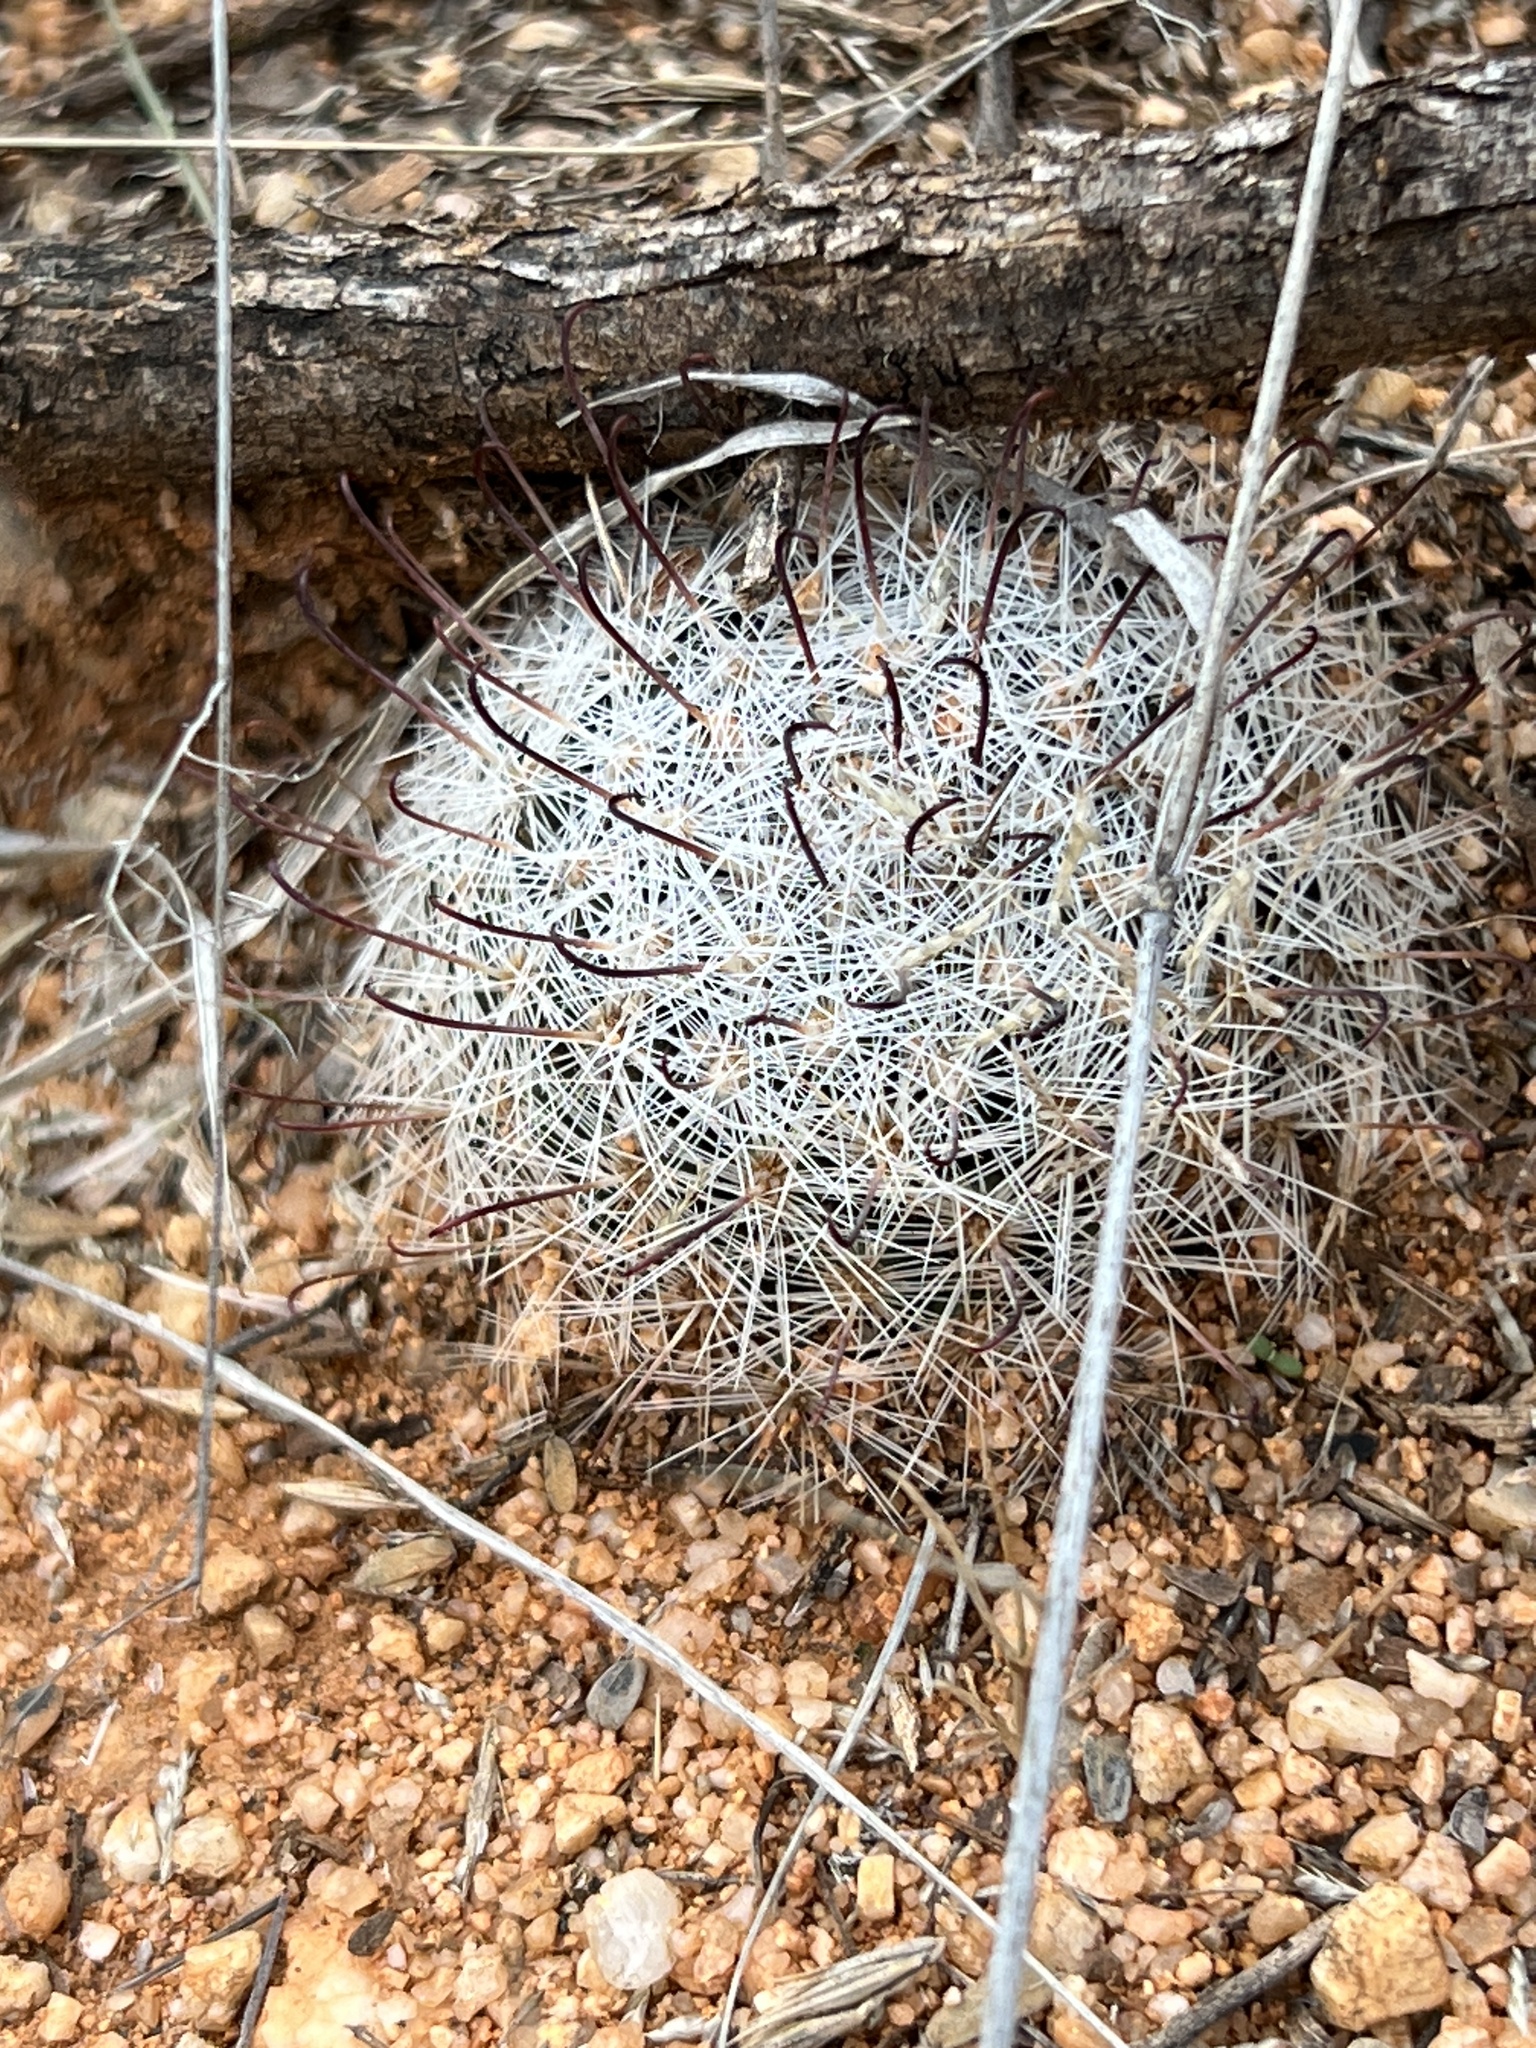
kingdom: Plantae
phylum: Tracheophyta
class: Magnoliopsida
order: Caryophyllales
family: Cactaceae
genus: Cochemiea
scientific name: Cochemiea grahamii
